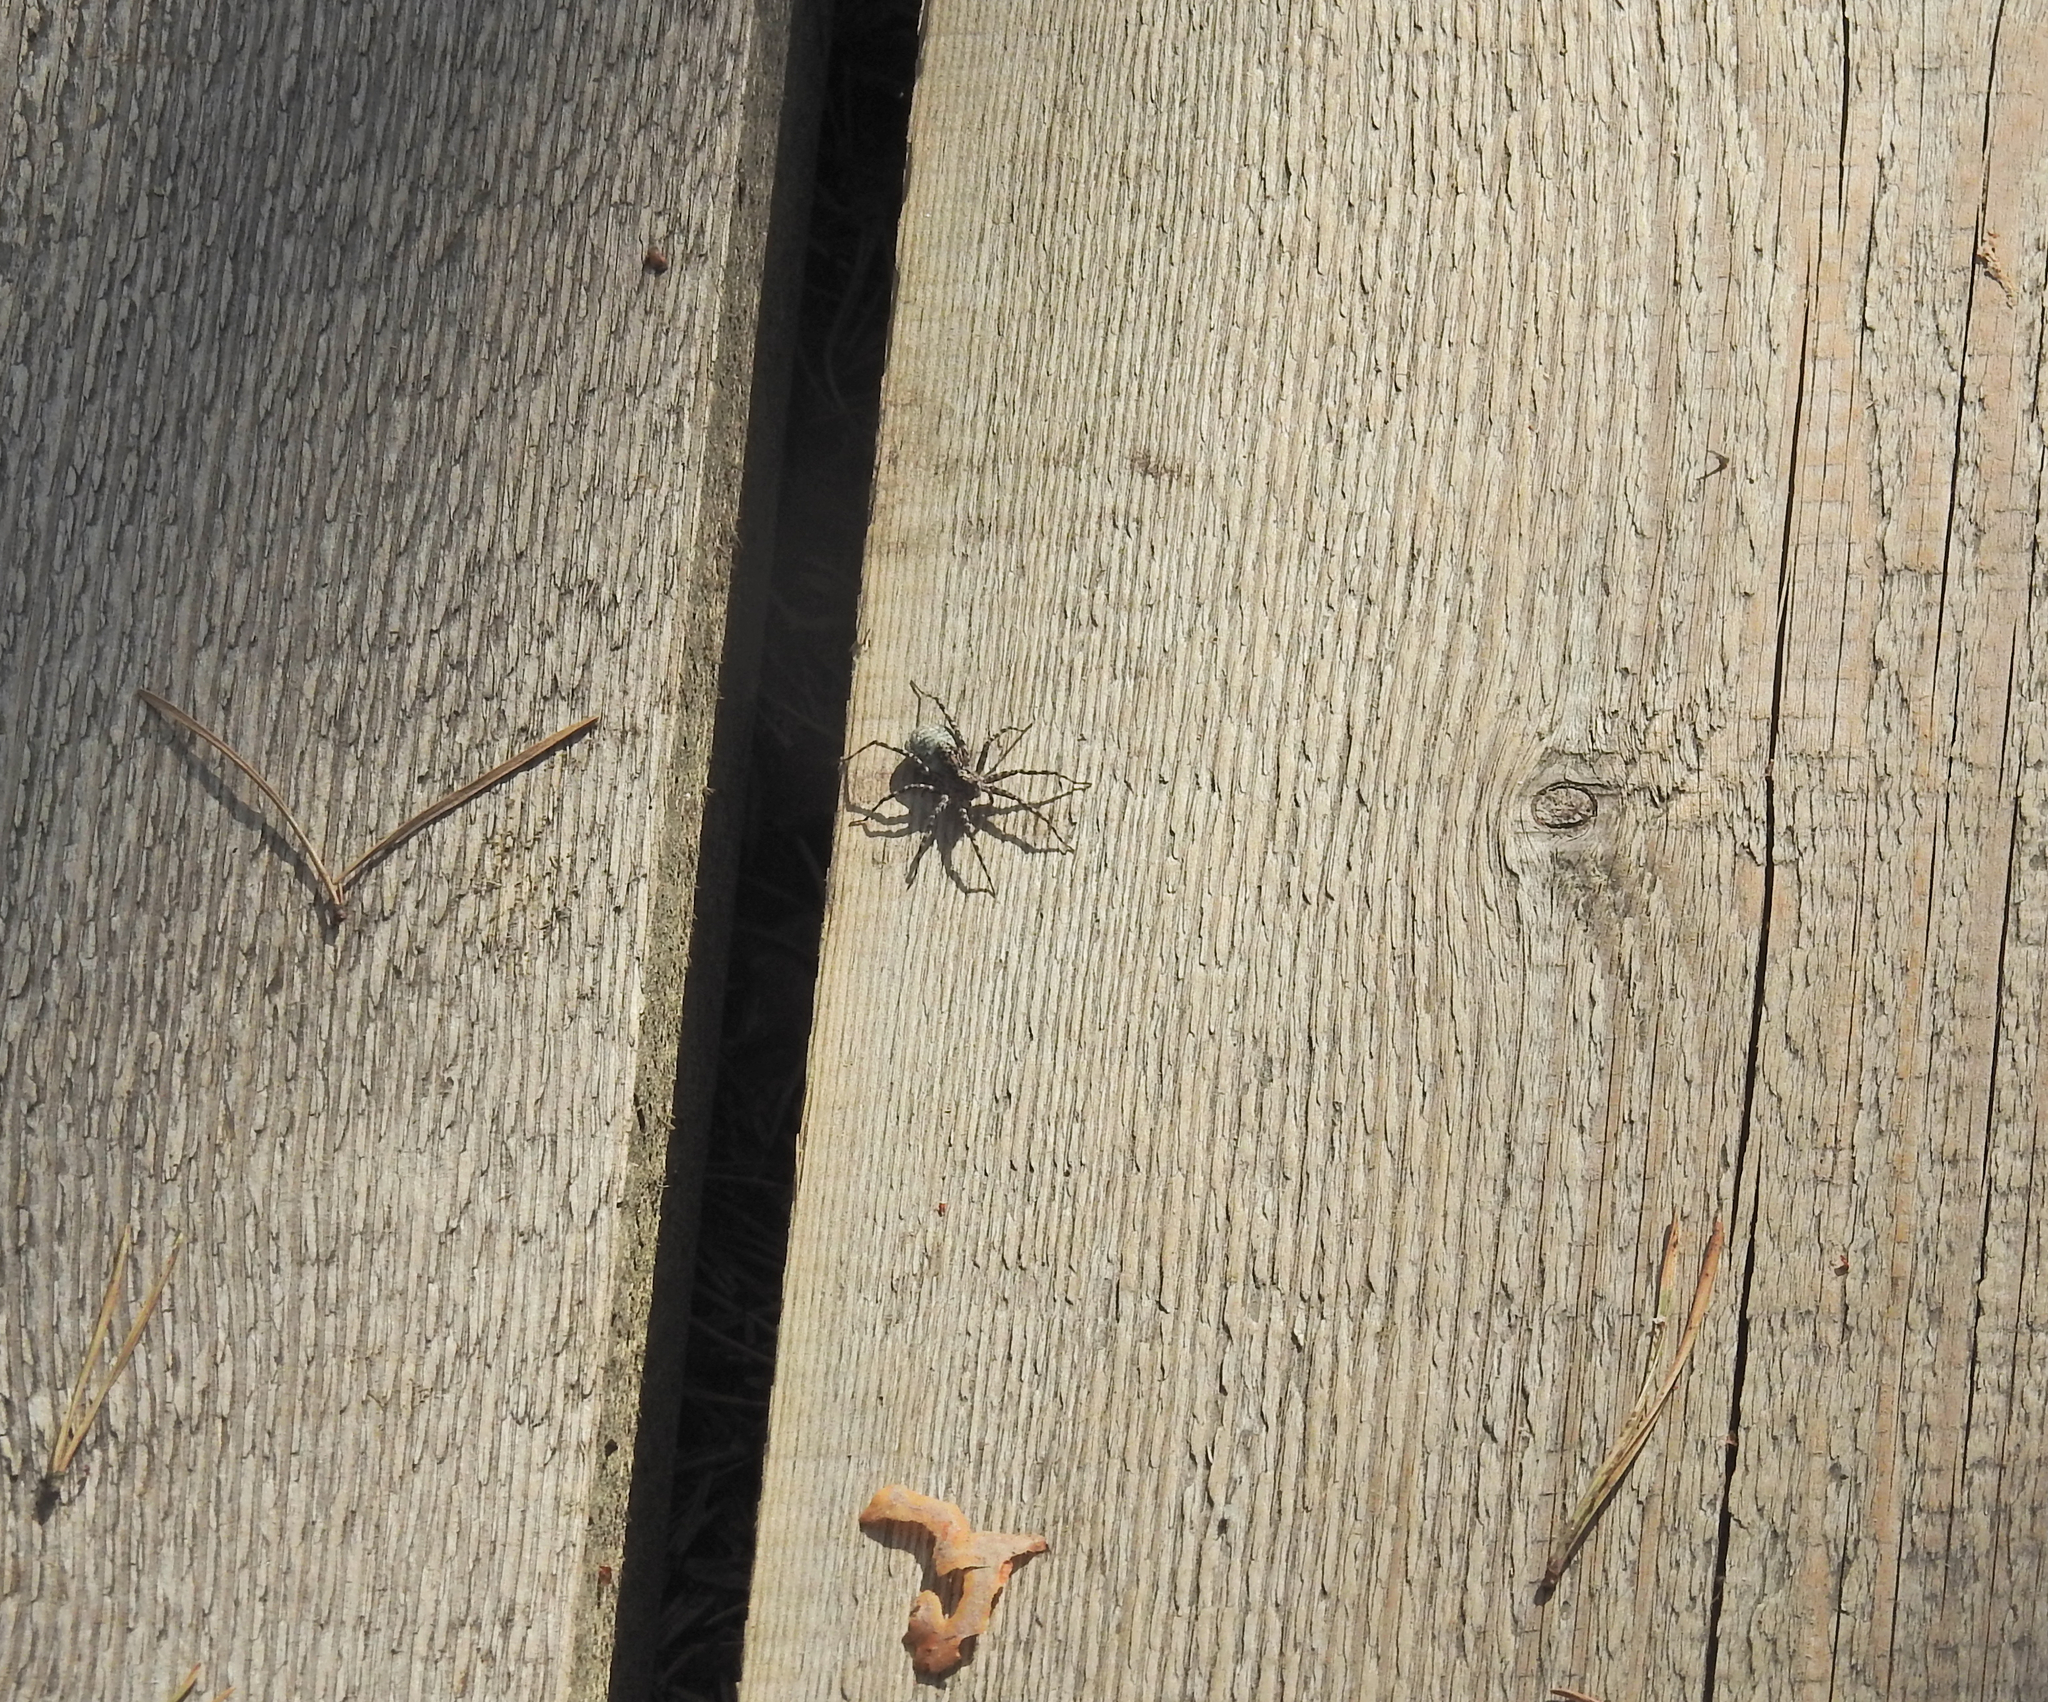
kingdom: Animalia
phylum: Arthropoda
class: Arachnida
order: Araneae
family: Lycosidae
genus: Acantholycosa
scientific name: Acantholycosa lignaria
